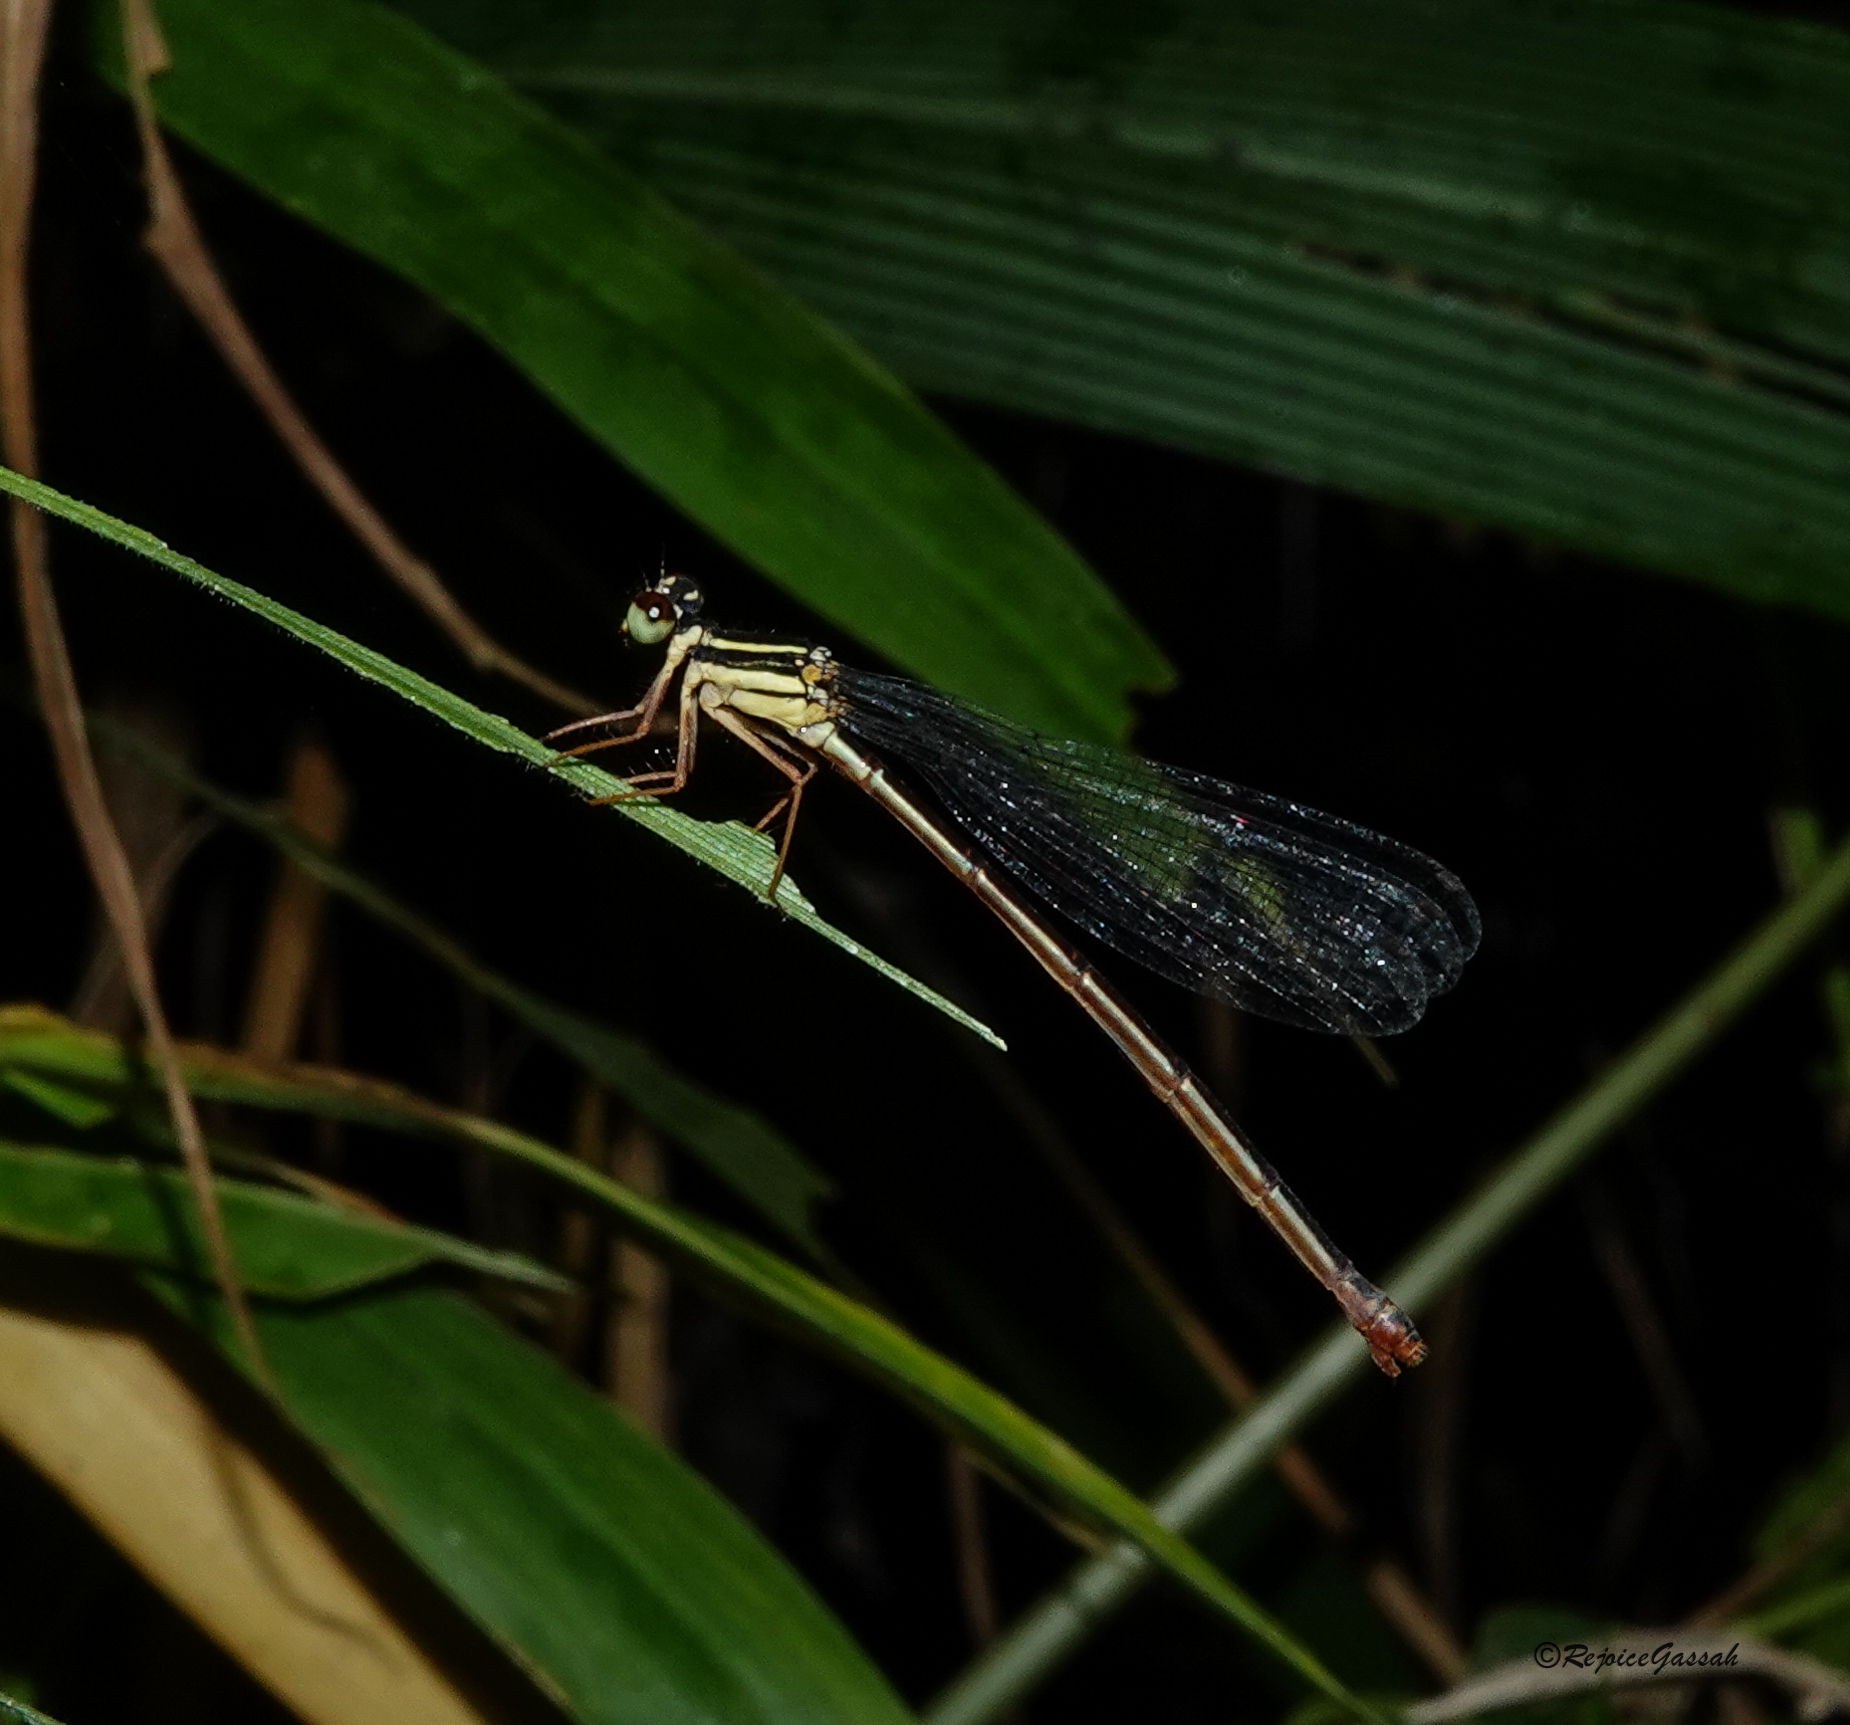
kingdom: Animalia
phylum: Arthropoda
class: Insecta
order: Odonata
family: Platycnemididae
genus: Calicnemia
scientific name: Calicnemia eximia
